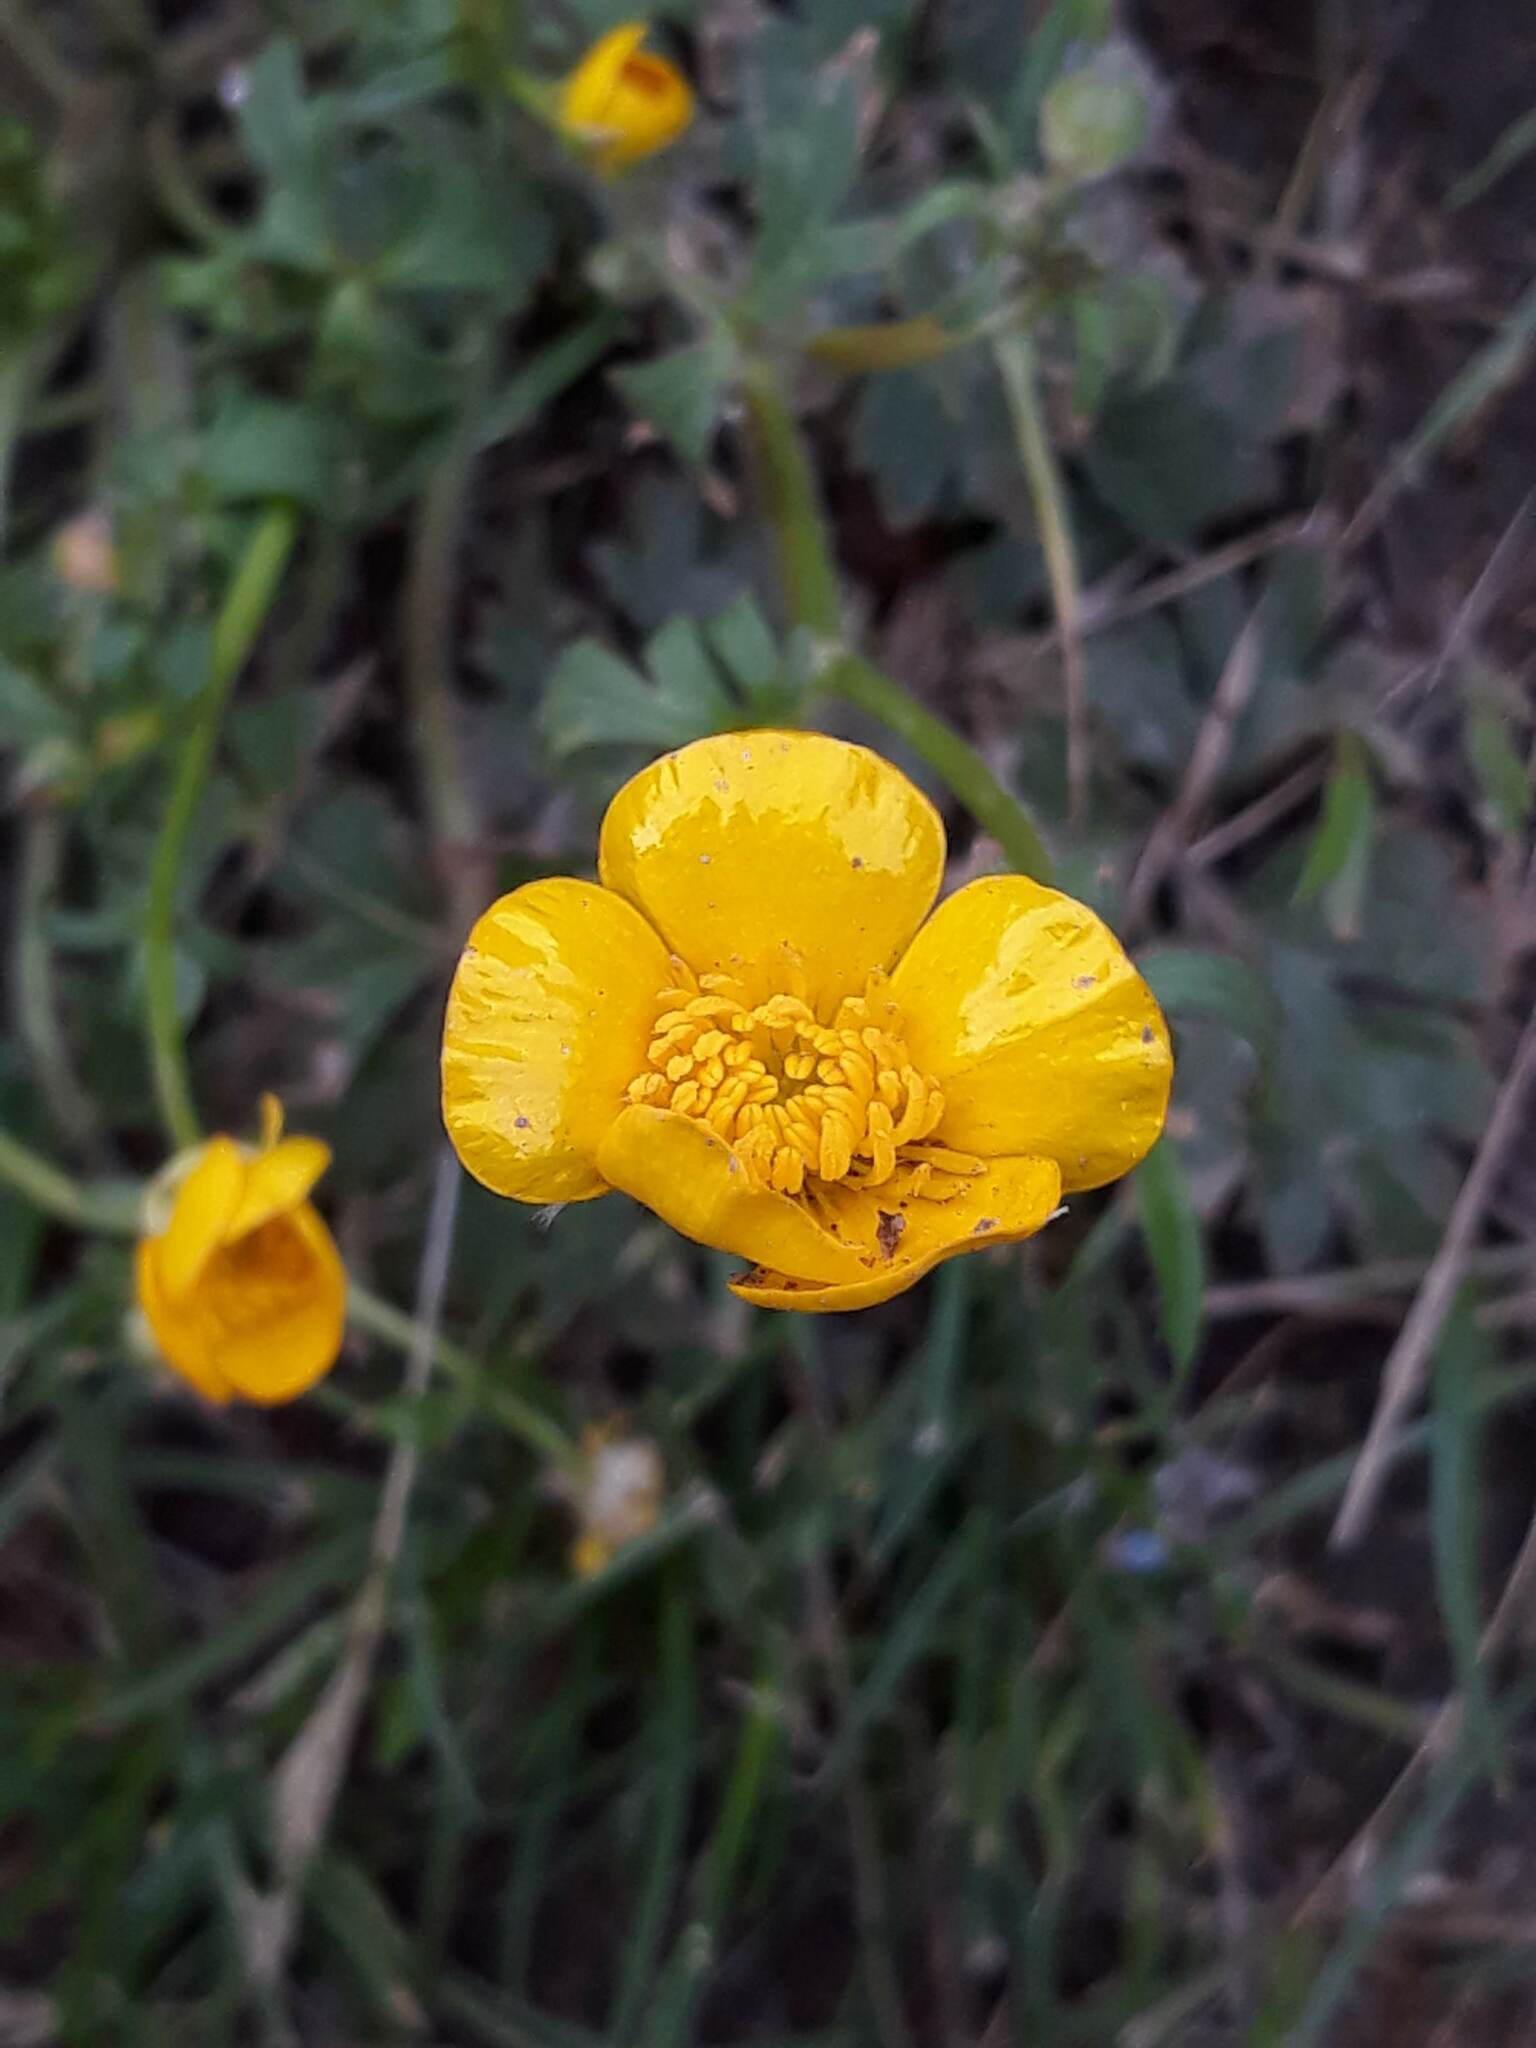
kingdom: Plantae
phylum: Tracheophyta
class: Magnoliopsida
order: Ranunculales
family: Ranunculaceae
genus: Ranunculus
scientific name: Ranunculus acris
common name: Meadow buttercup
